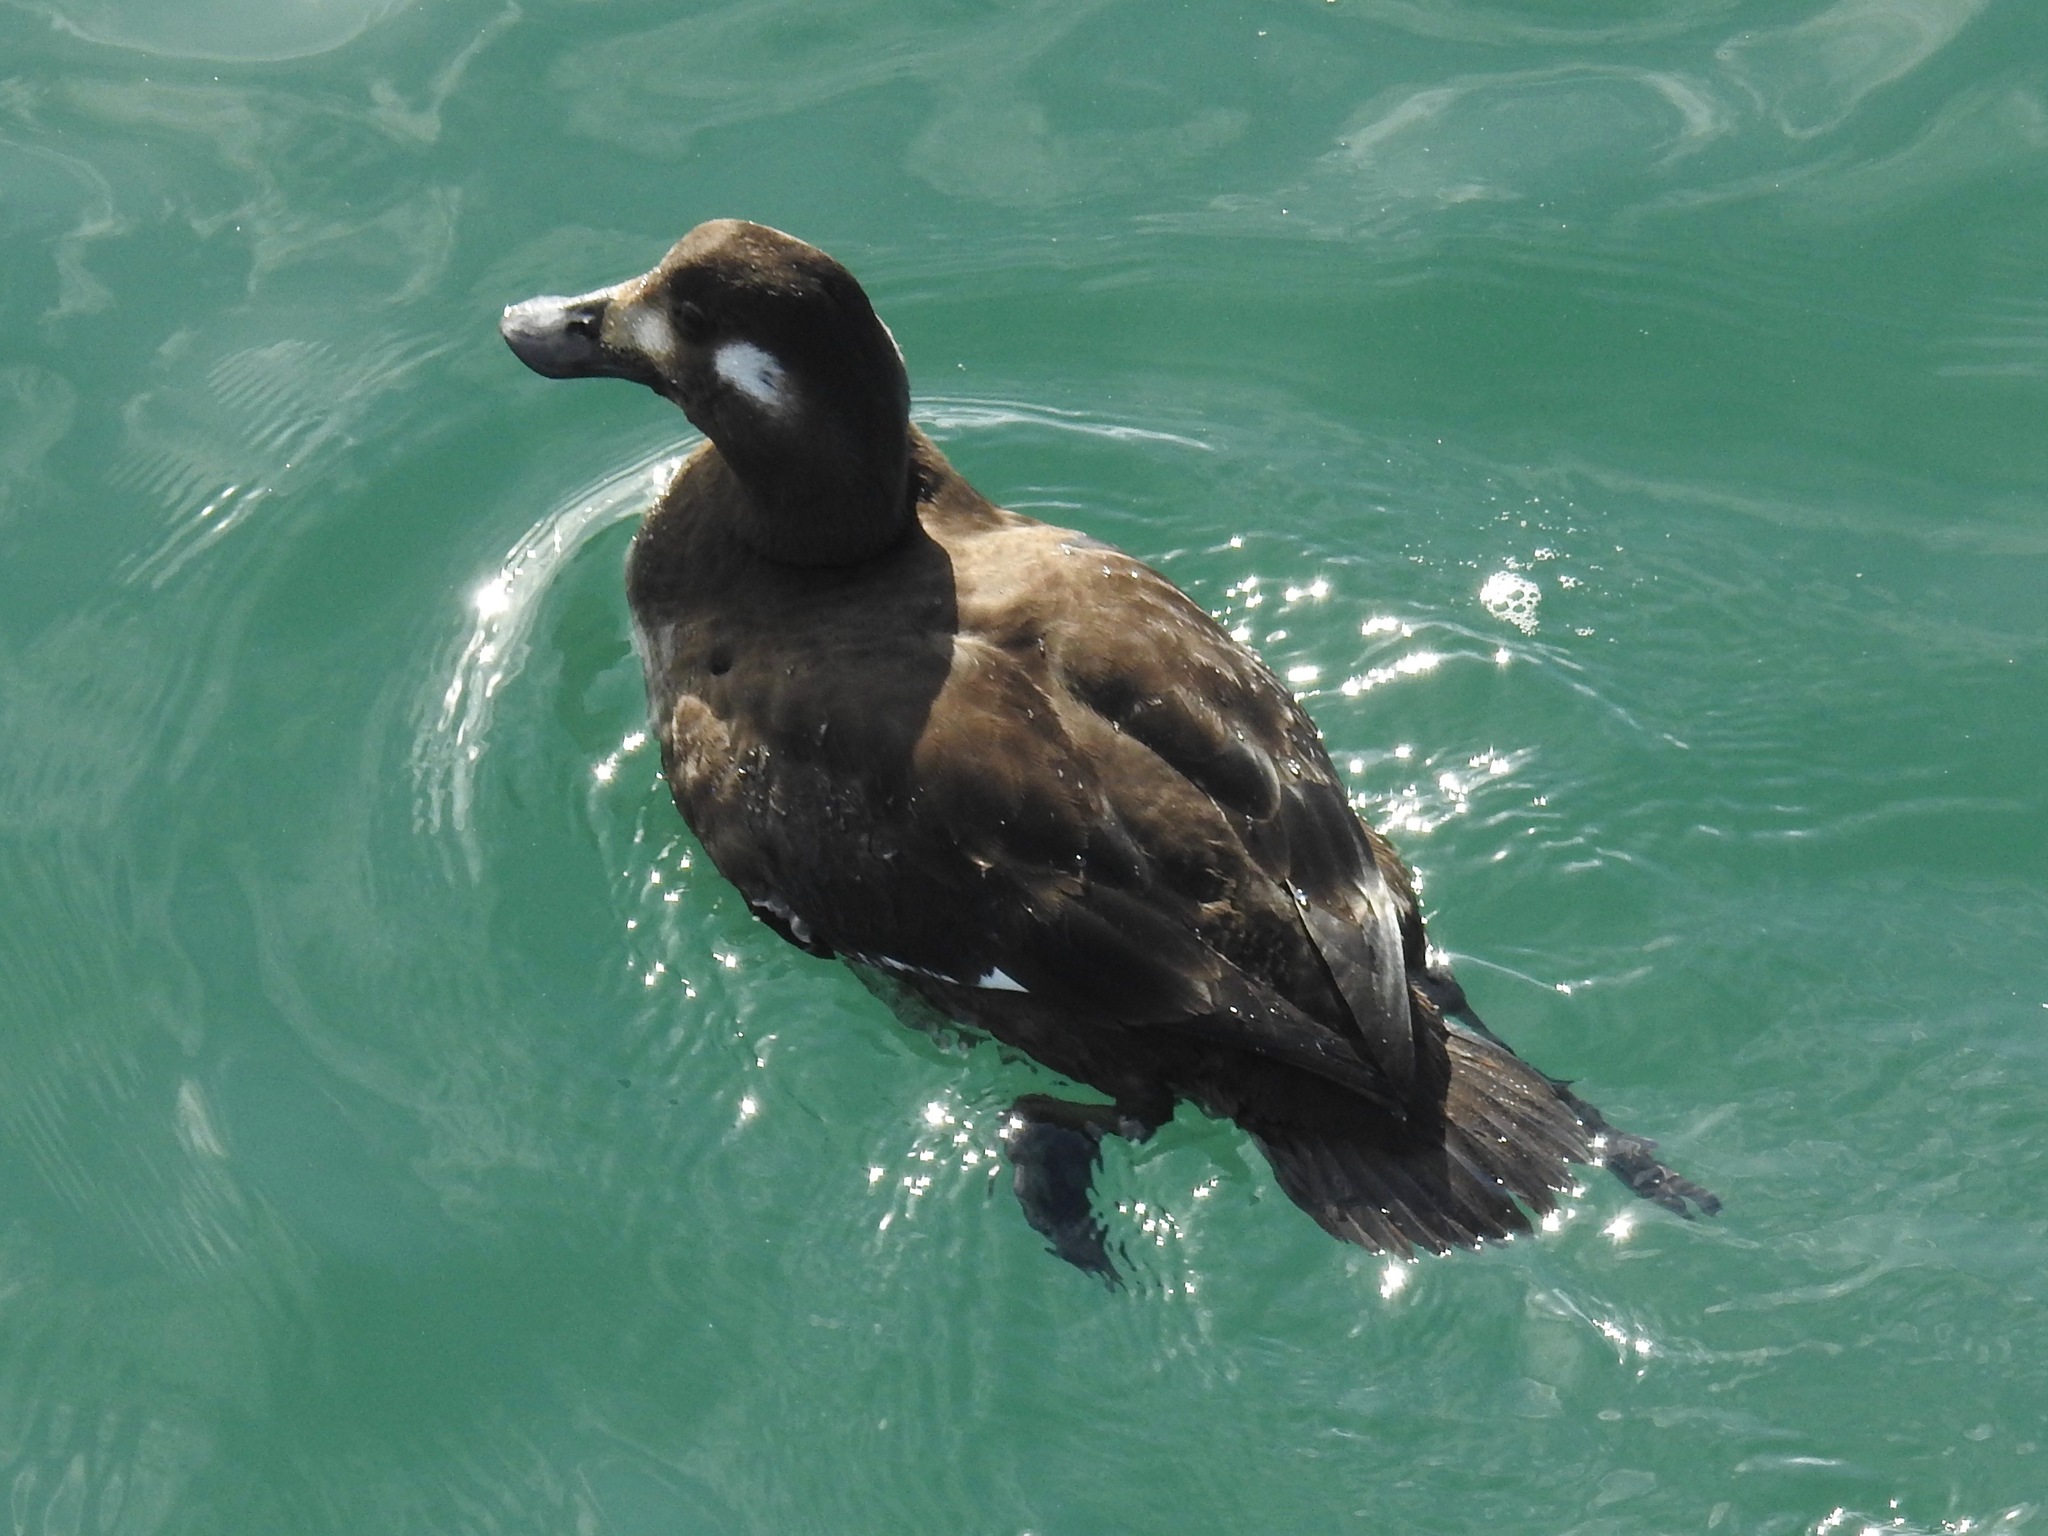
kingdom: Animalia
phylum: Chordata
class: Aves
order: Anseriformes
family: Anatidae
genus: Melanitta
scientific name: Melanitta deglandi
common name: White-winged scoter
